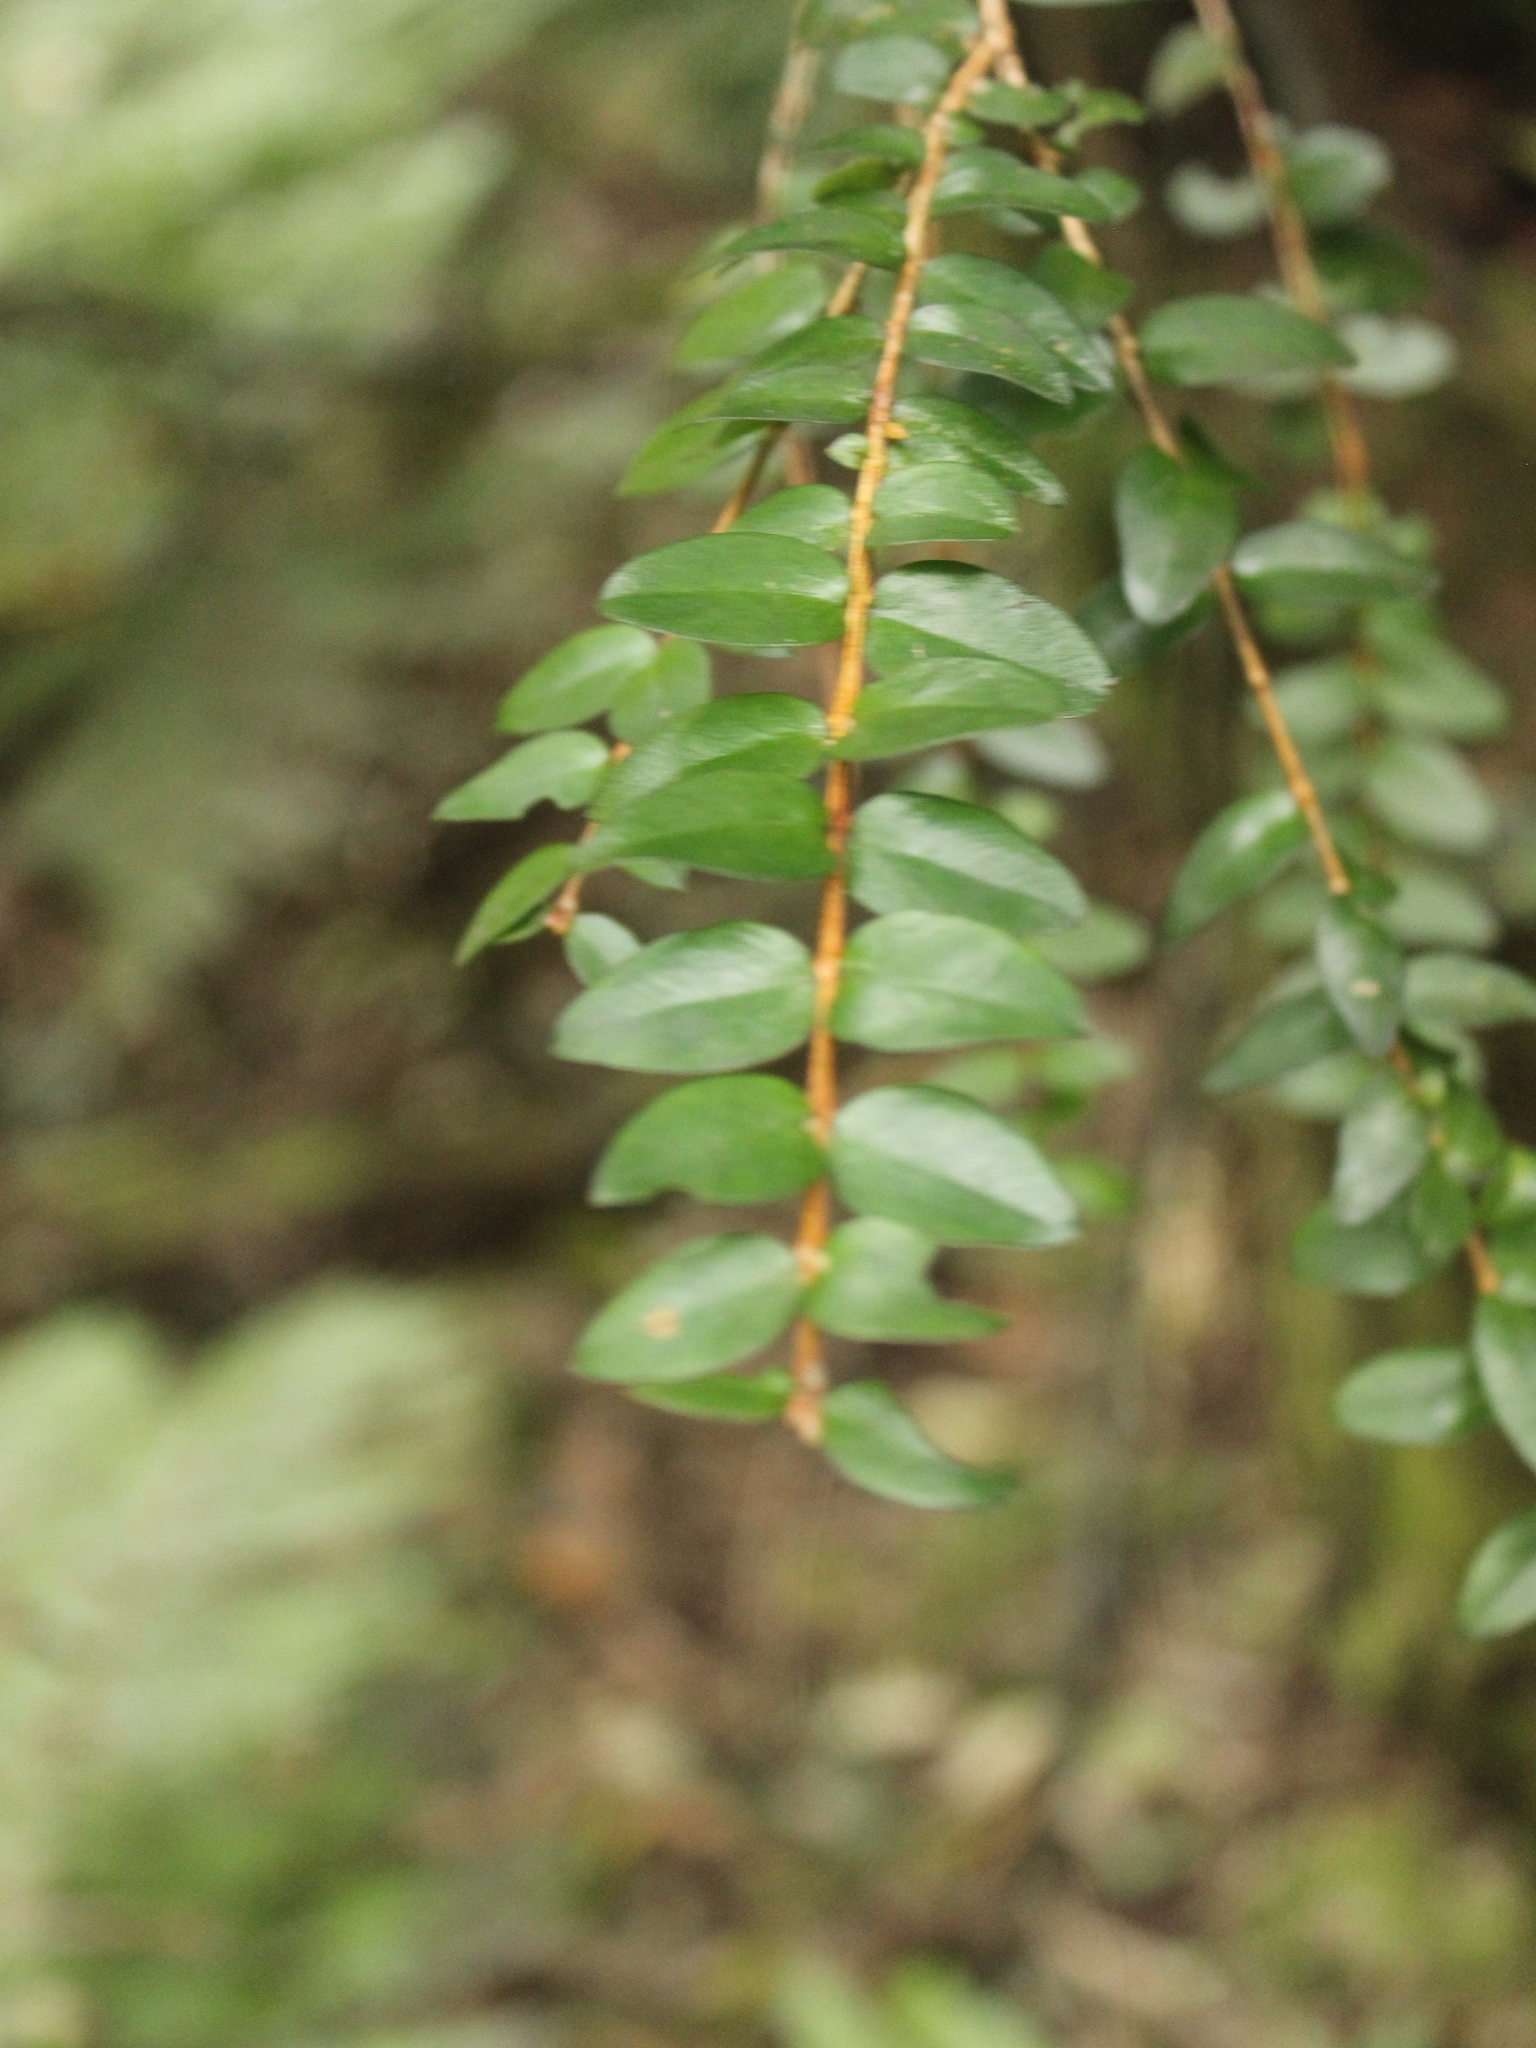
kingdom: Plantae
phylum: Tracheophyta
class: Magnoliopsida
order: Myrtales
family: Myrtaceae
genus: Metrosideros
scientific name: Metrosideros diffusa
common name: Small ratavine
